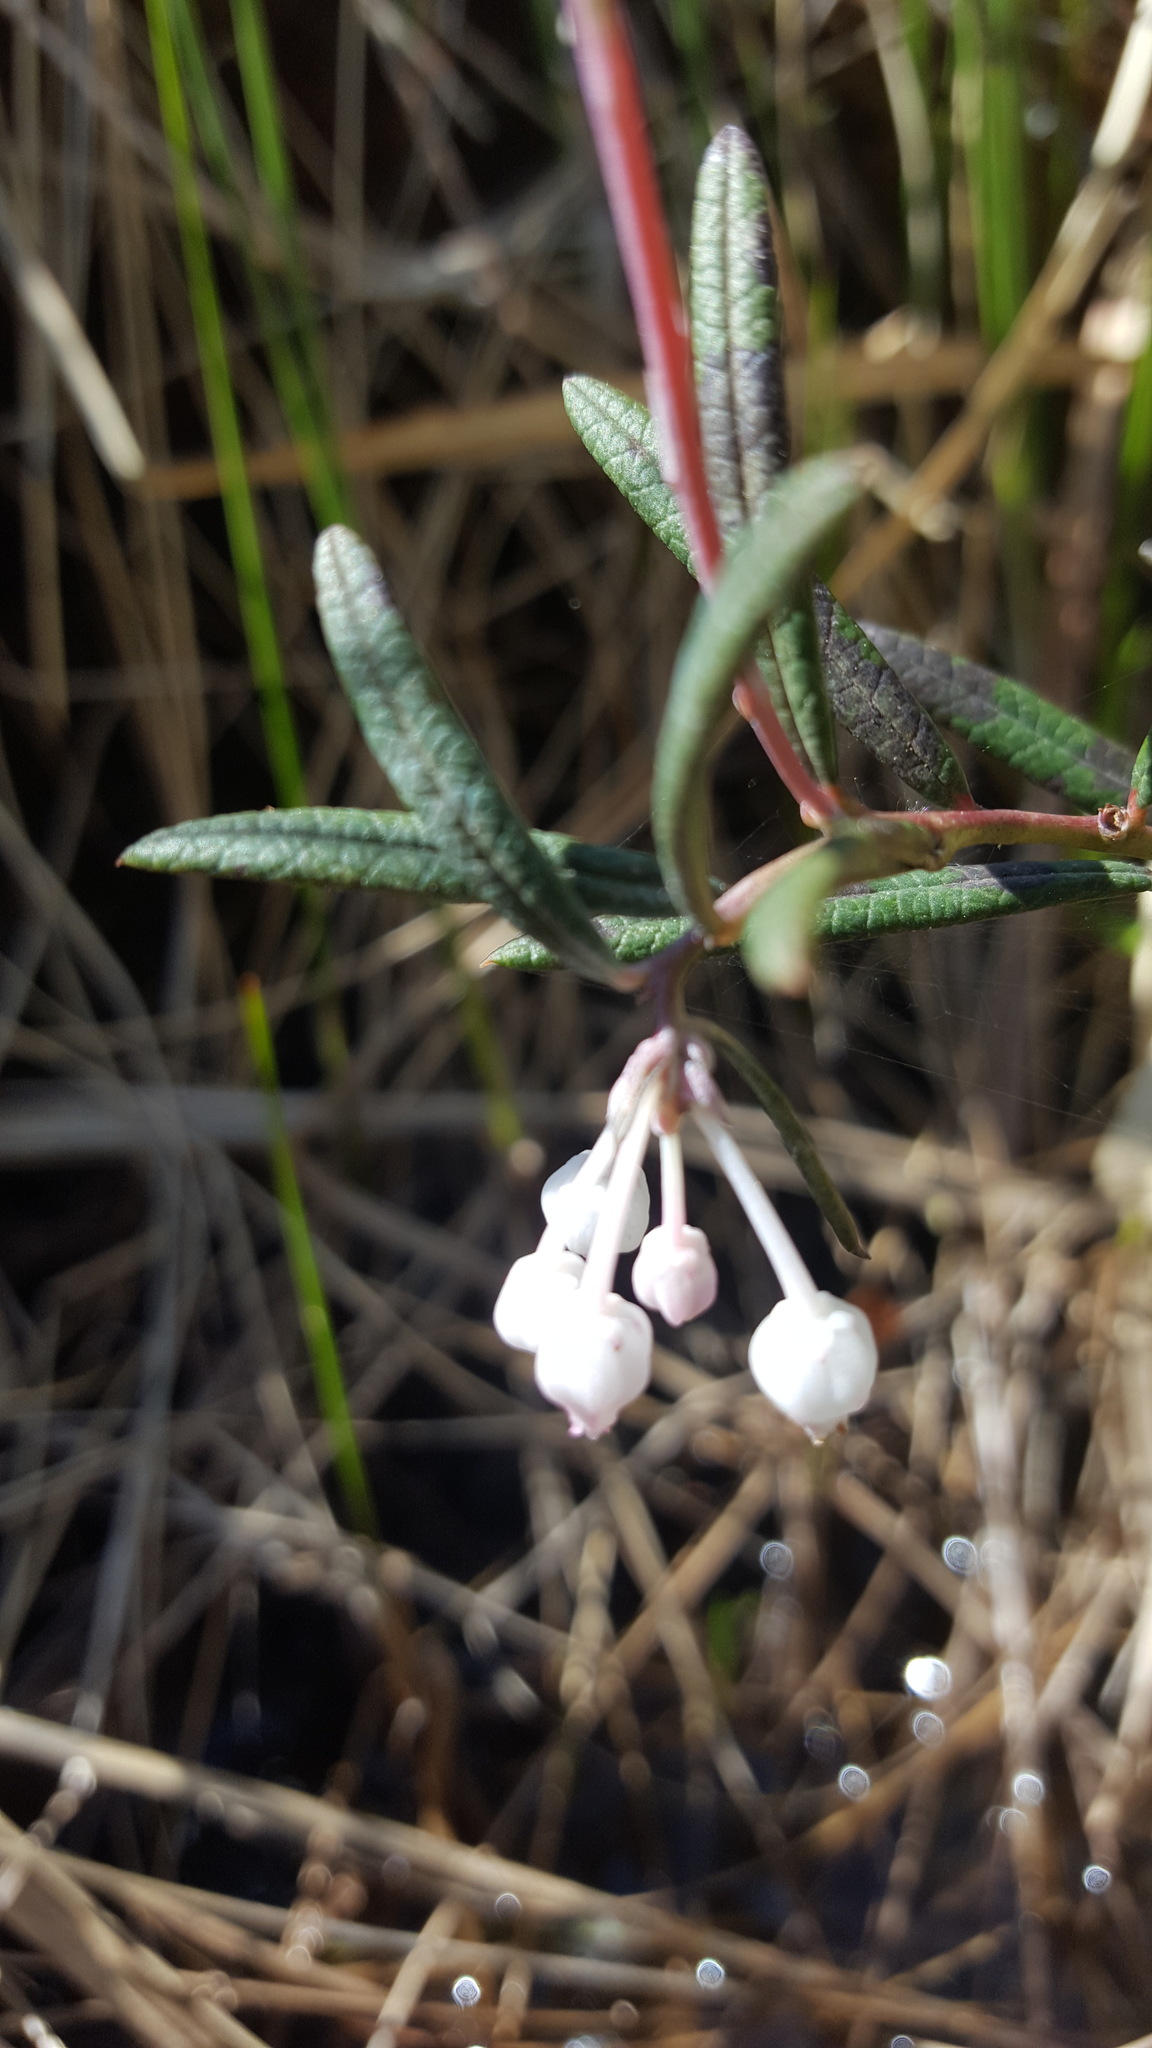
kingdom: Plantae
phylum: Tracheophyta
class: Magnoliopsida
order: Ericales
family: Ericaceae
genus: Andromeda
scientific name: Andromeda polifolia
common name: Bog-rosemary
